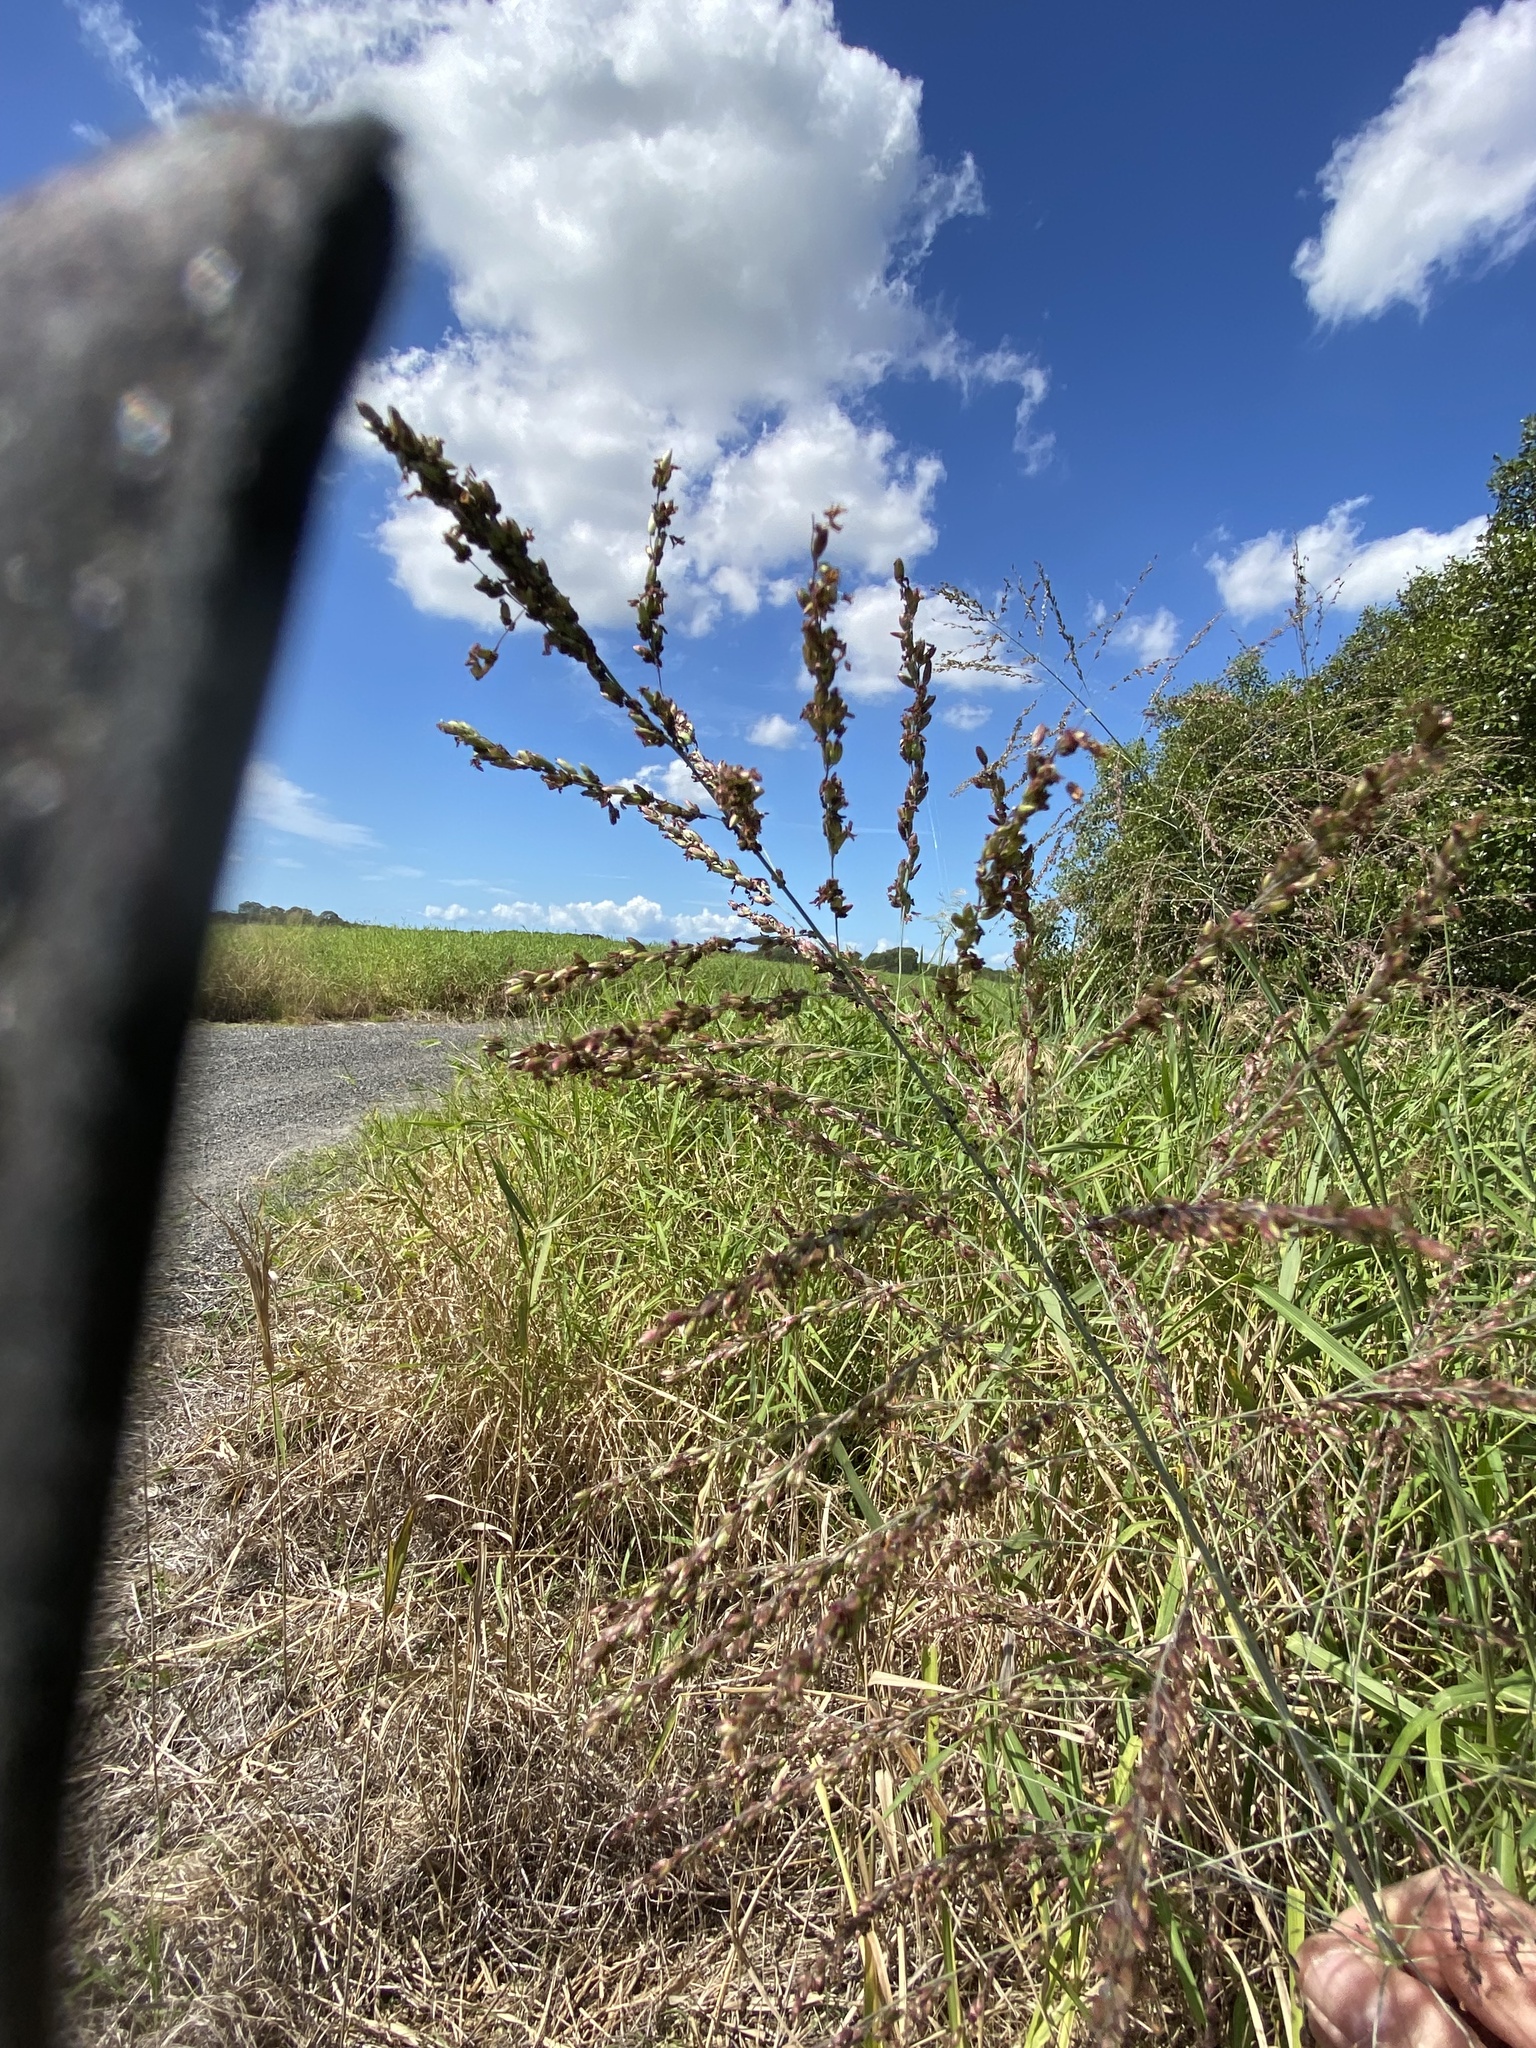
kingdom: Plantae
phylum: Tracheophyta
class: Liliopsida
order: Poales
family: Poaceae
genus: Megathyrsus
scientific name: Megathyrsus maximus
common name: Guineagrass
